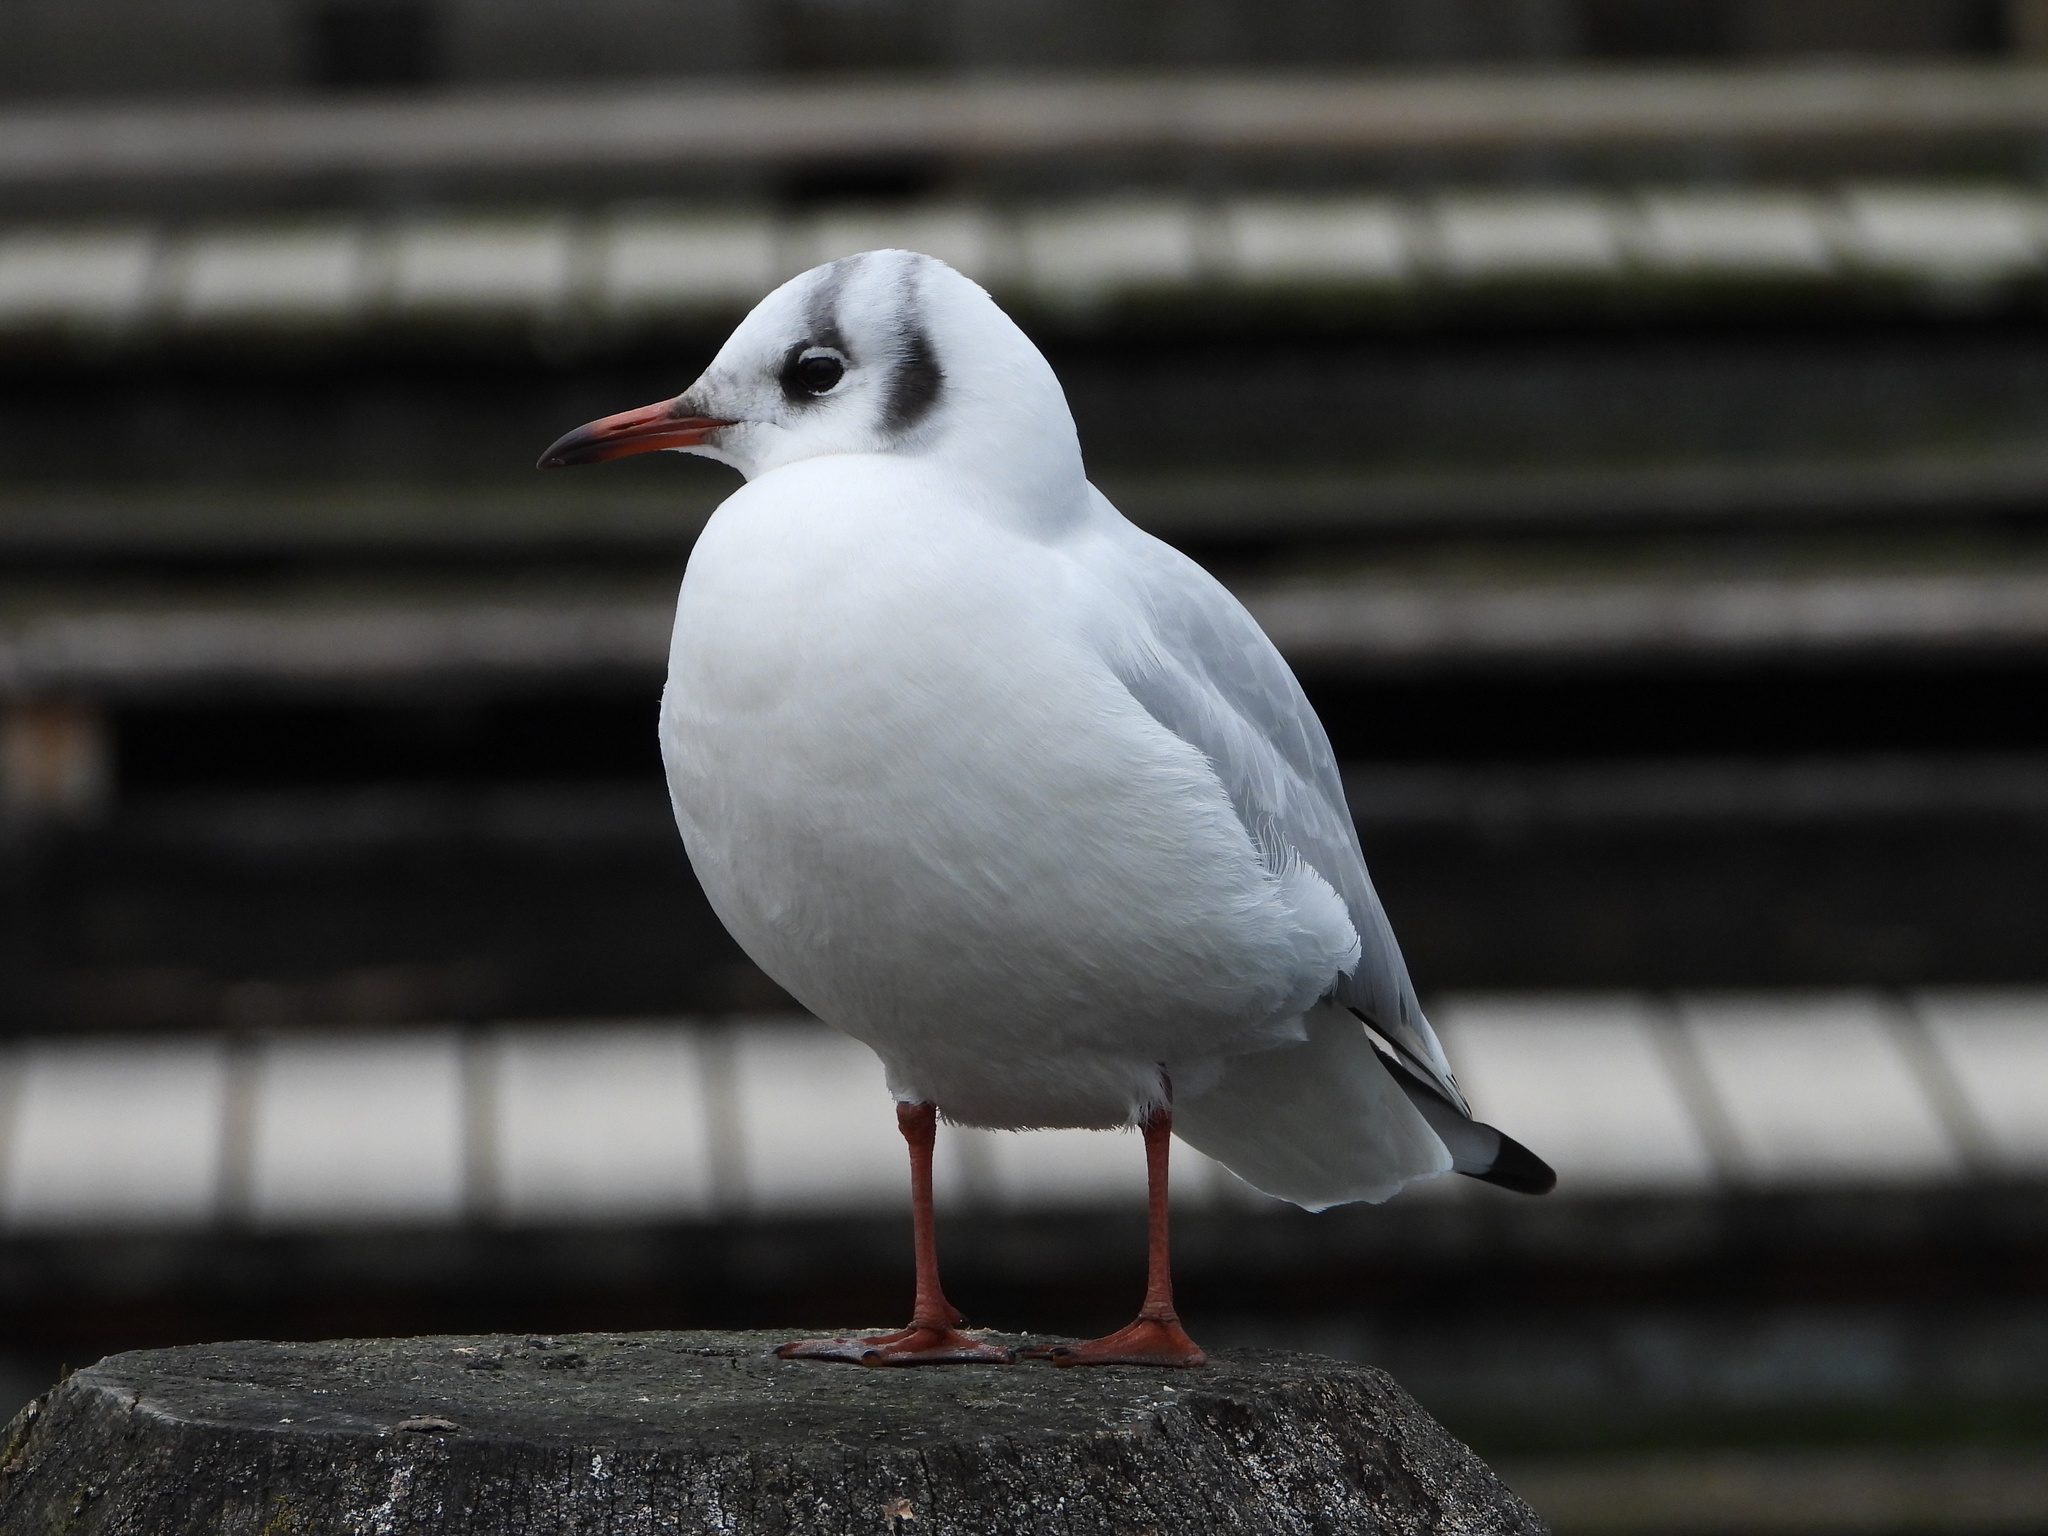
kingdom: Animalia
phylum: Chordata
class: Aves
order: Charadriiformes
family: Laridae
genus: Chroicocephalus
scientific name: Chroicocephalus ridibundus
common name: Black-headed gull
